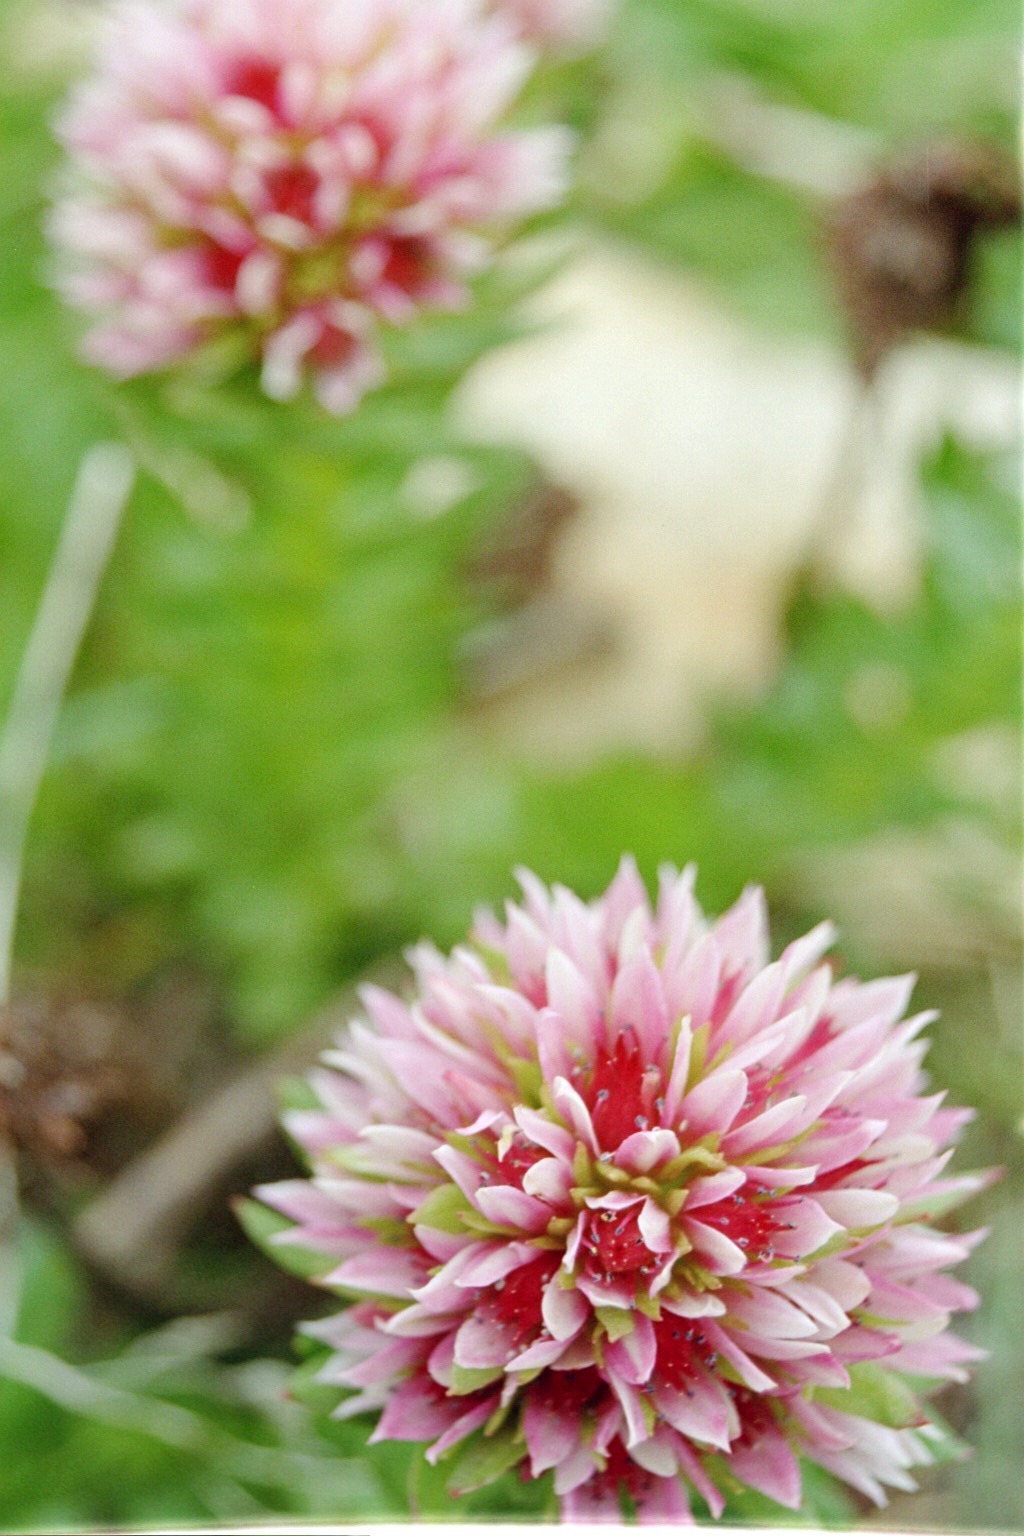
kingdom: Plantae
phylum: Tracheophyta
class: Magnoliopsida
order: Saxifragales
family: Crassulaceae
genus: Rhodiola
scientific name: Rhodiola rhodantha
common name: Red orpine
